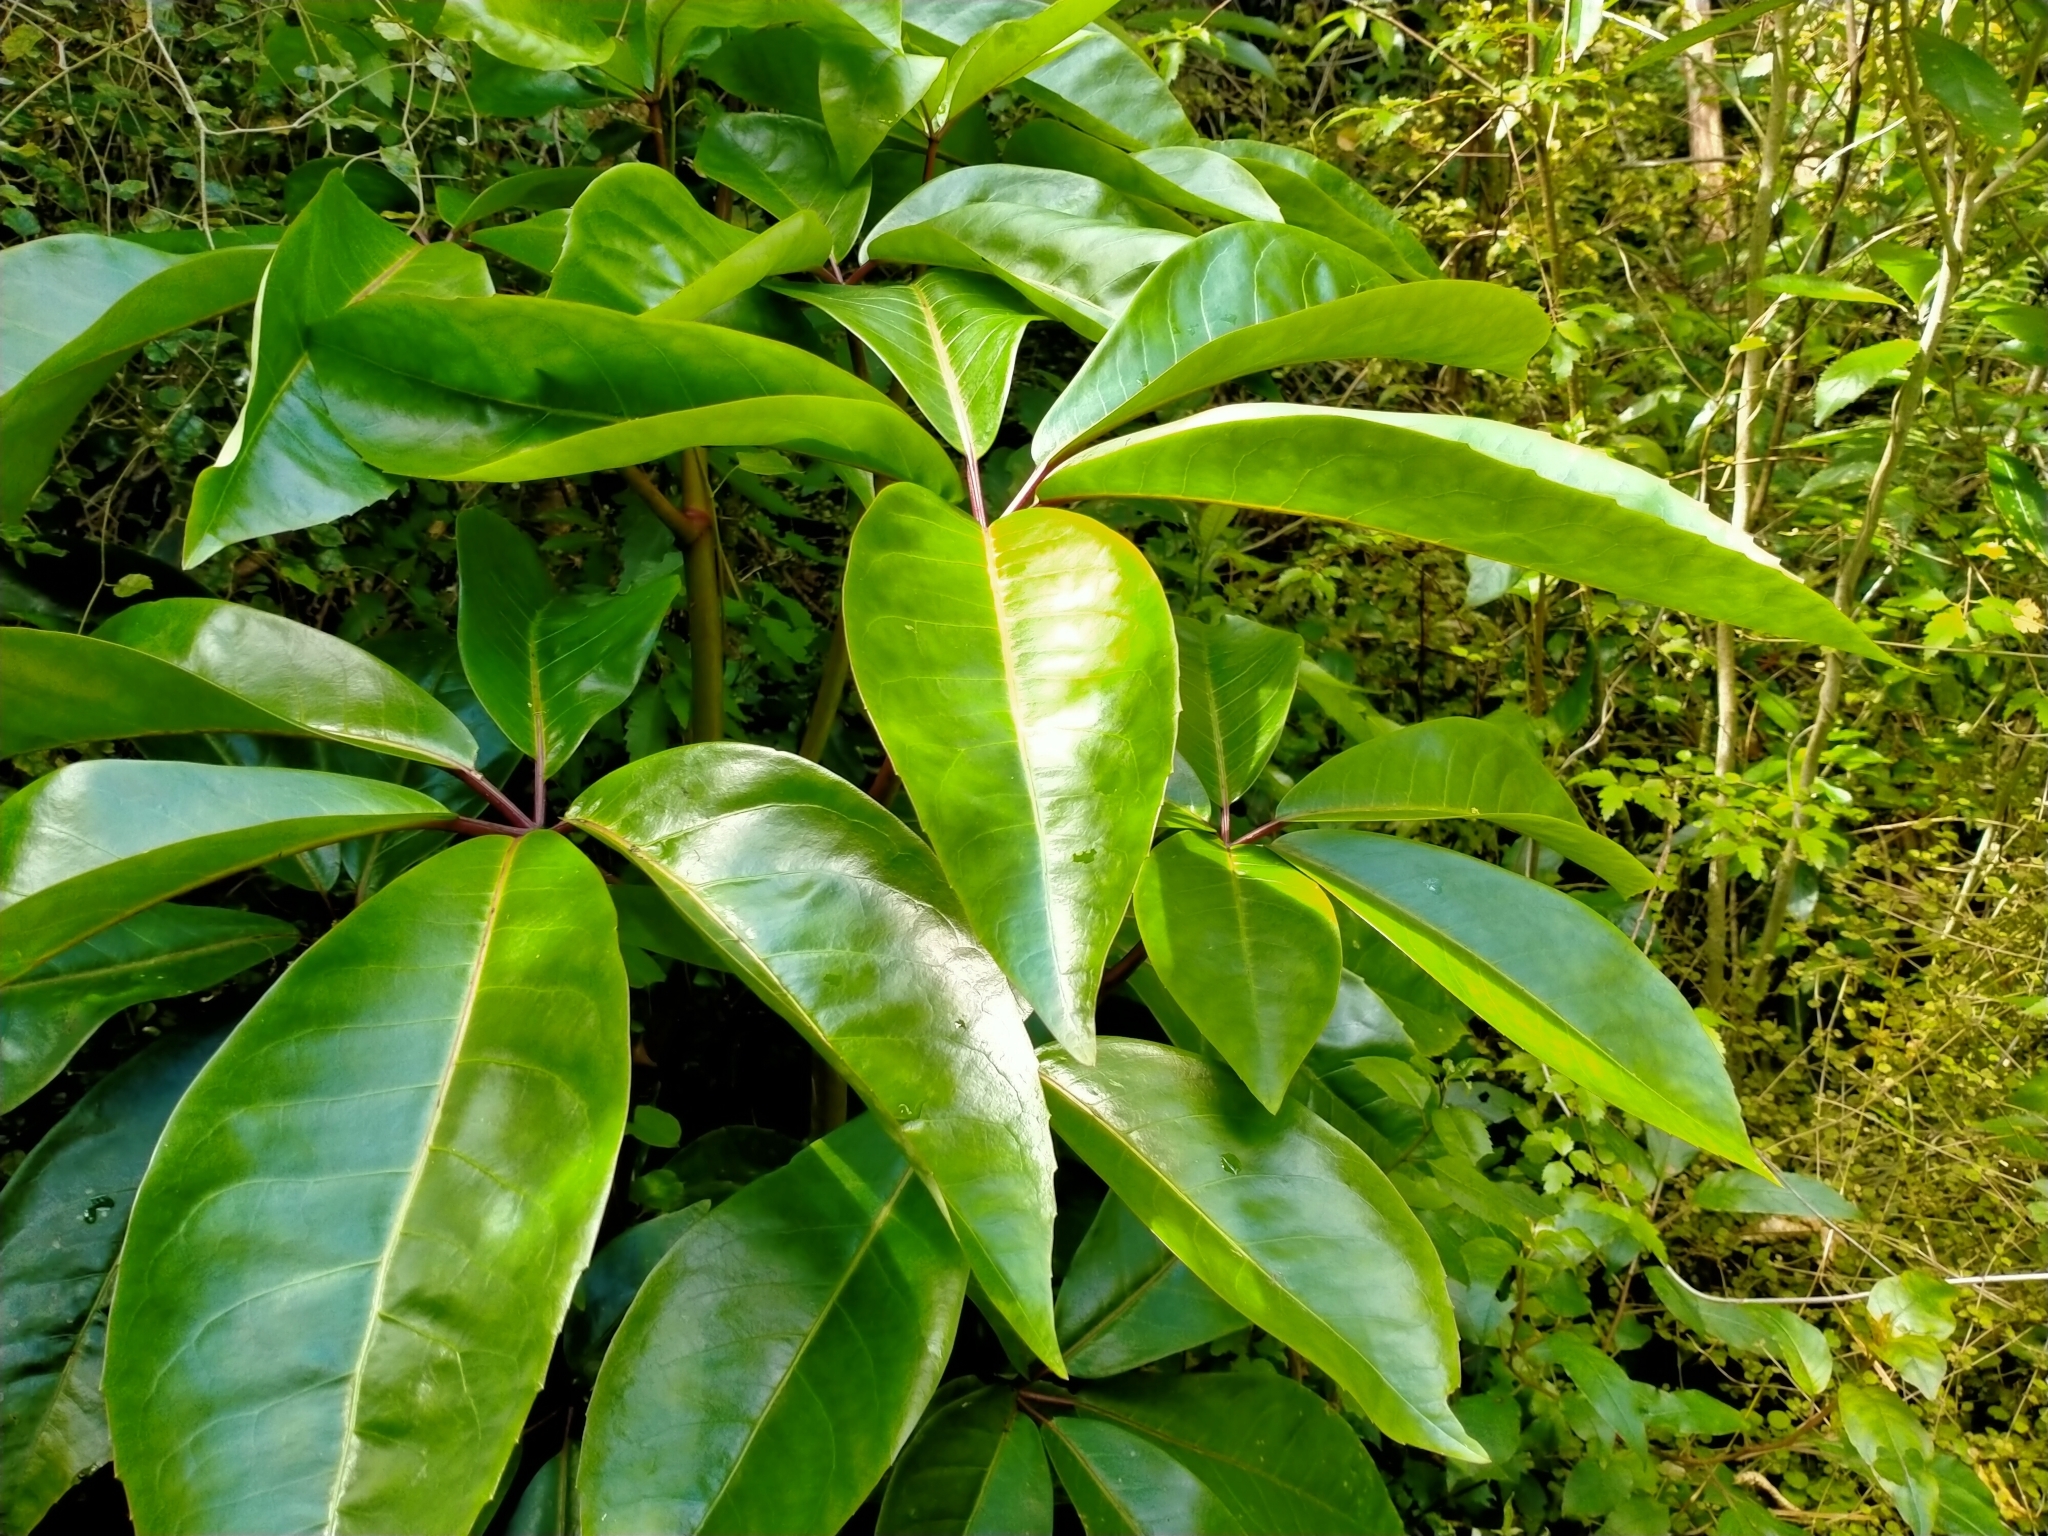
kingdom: Plantae
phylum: Tracheophyta
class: Magnoliopsida
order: Apiales
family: Araliaceae
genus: Neopanax
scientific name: Neopanax laetus
